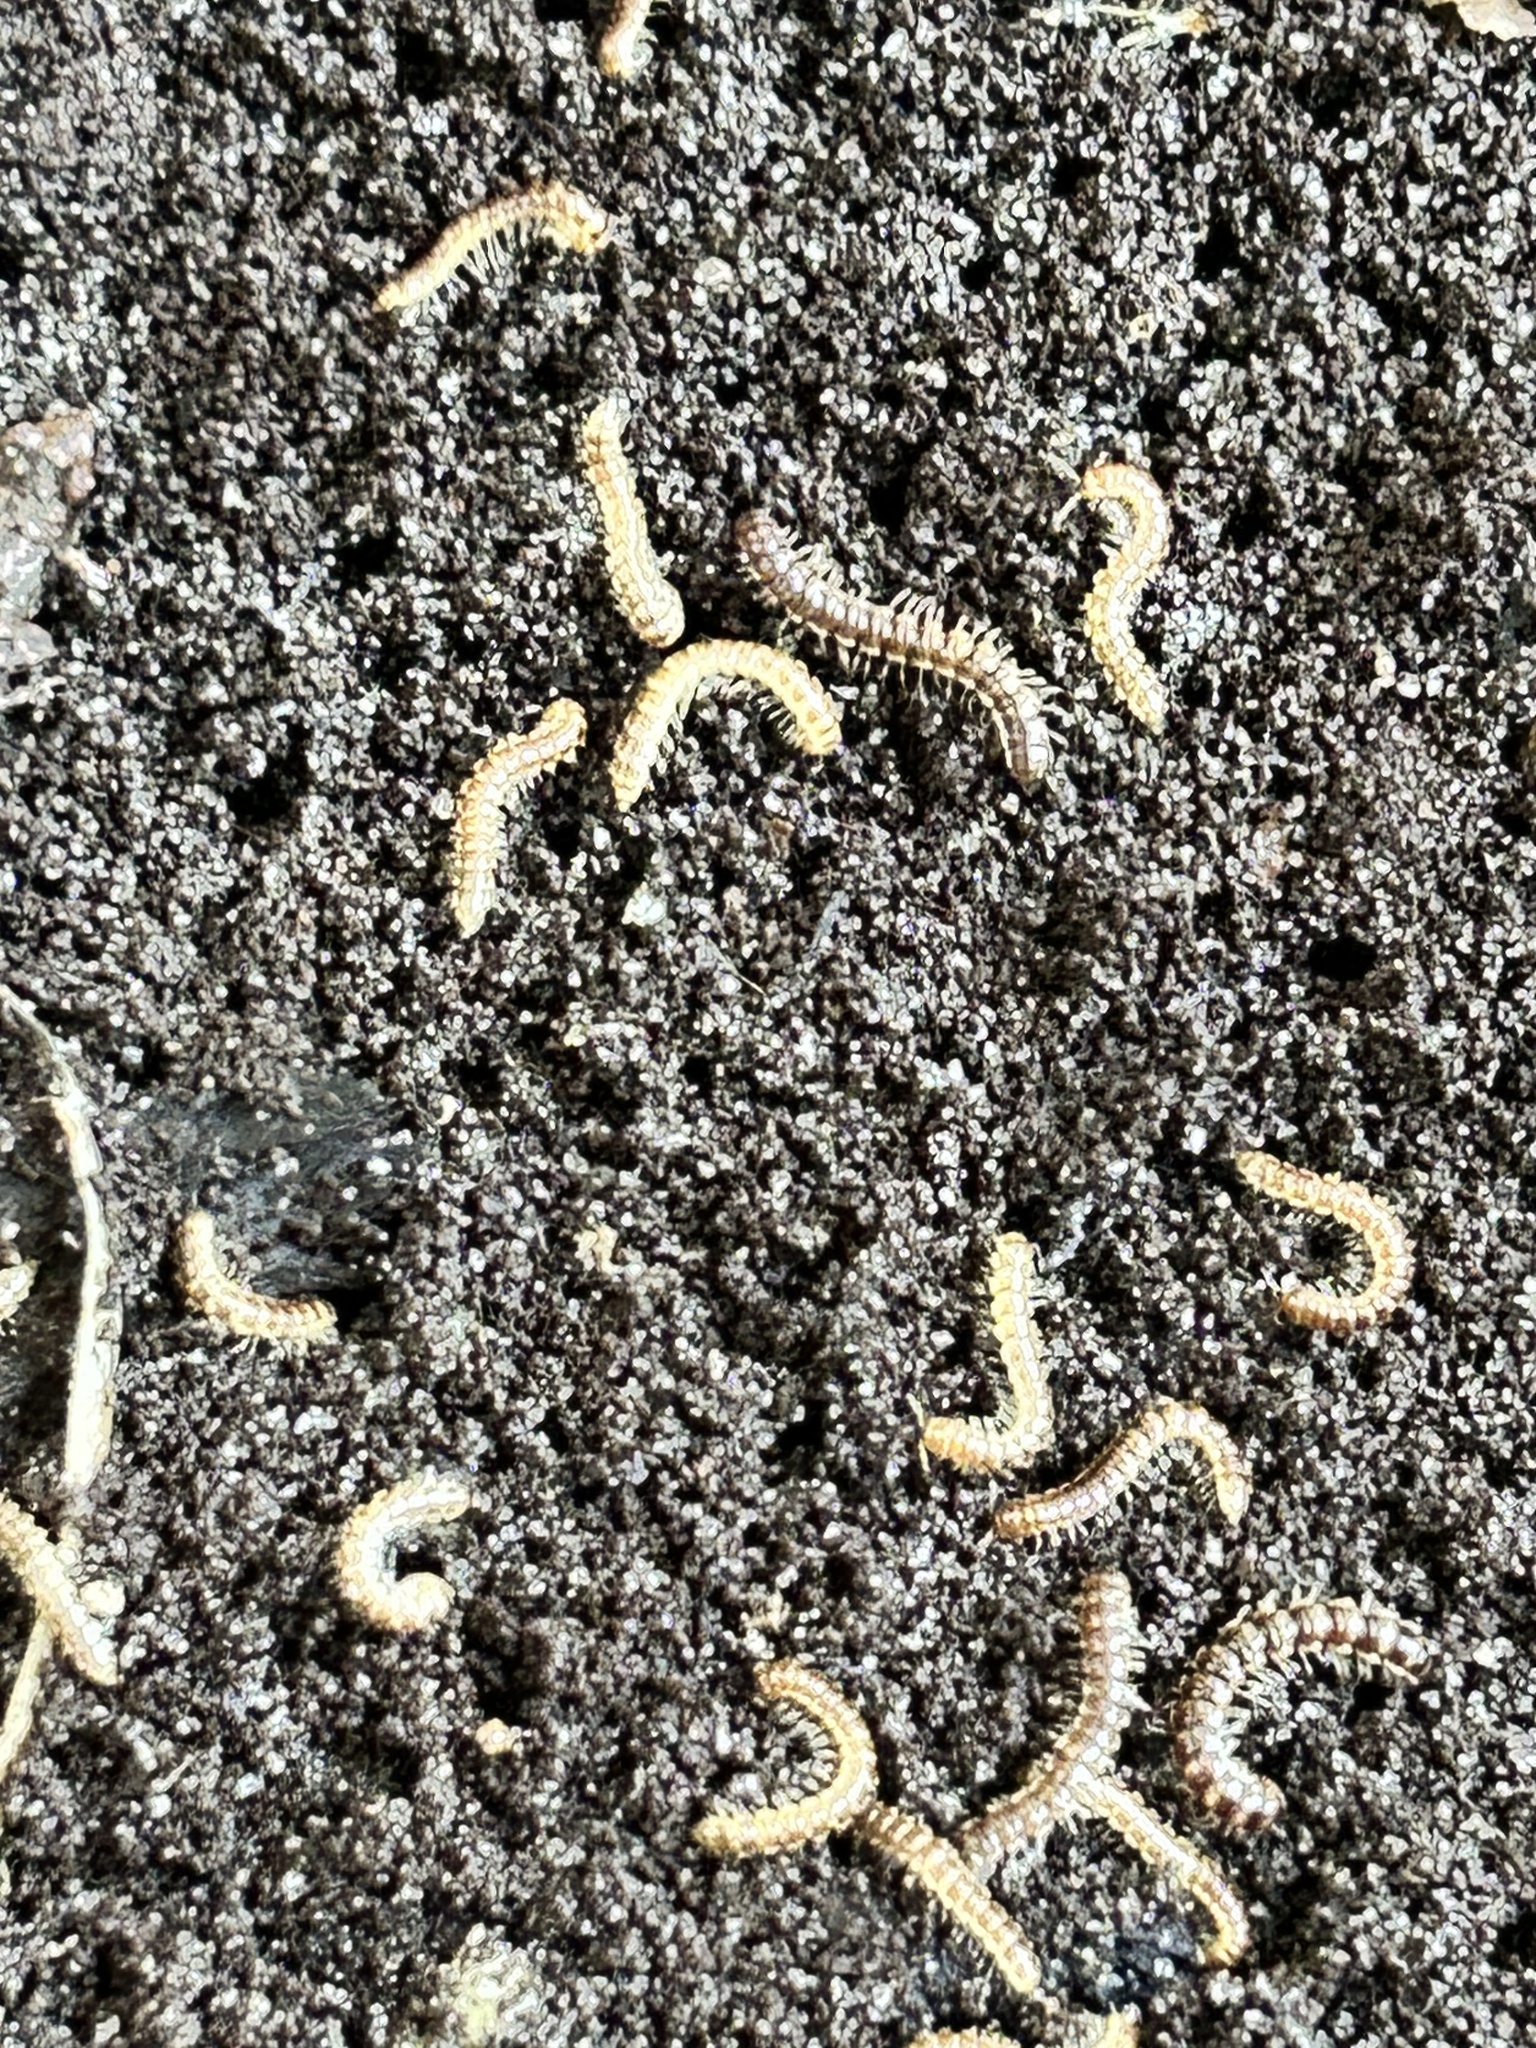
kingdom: Animalia
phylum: Arthropoda
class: Diplopoda
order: Polydesmida
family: Paradoxosomatidae
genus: Oxidus
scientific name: Oxidus gracilis
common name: Greenhouse millipede
